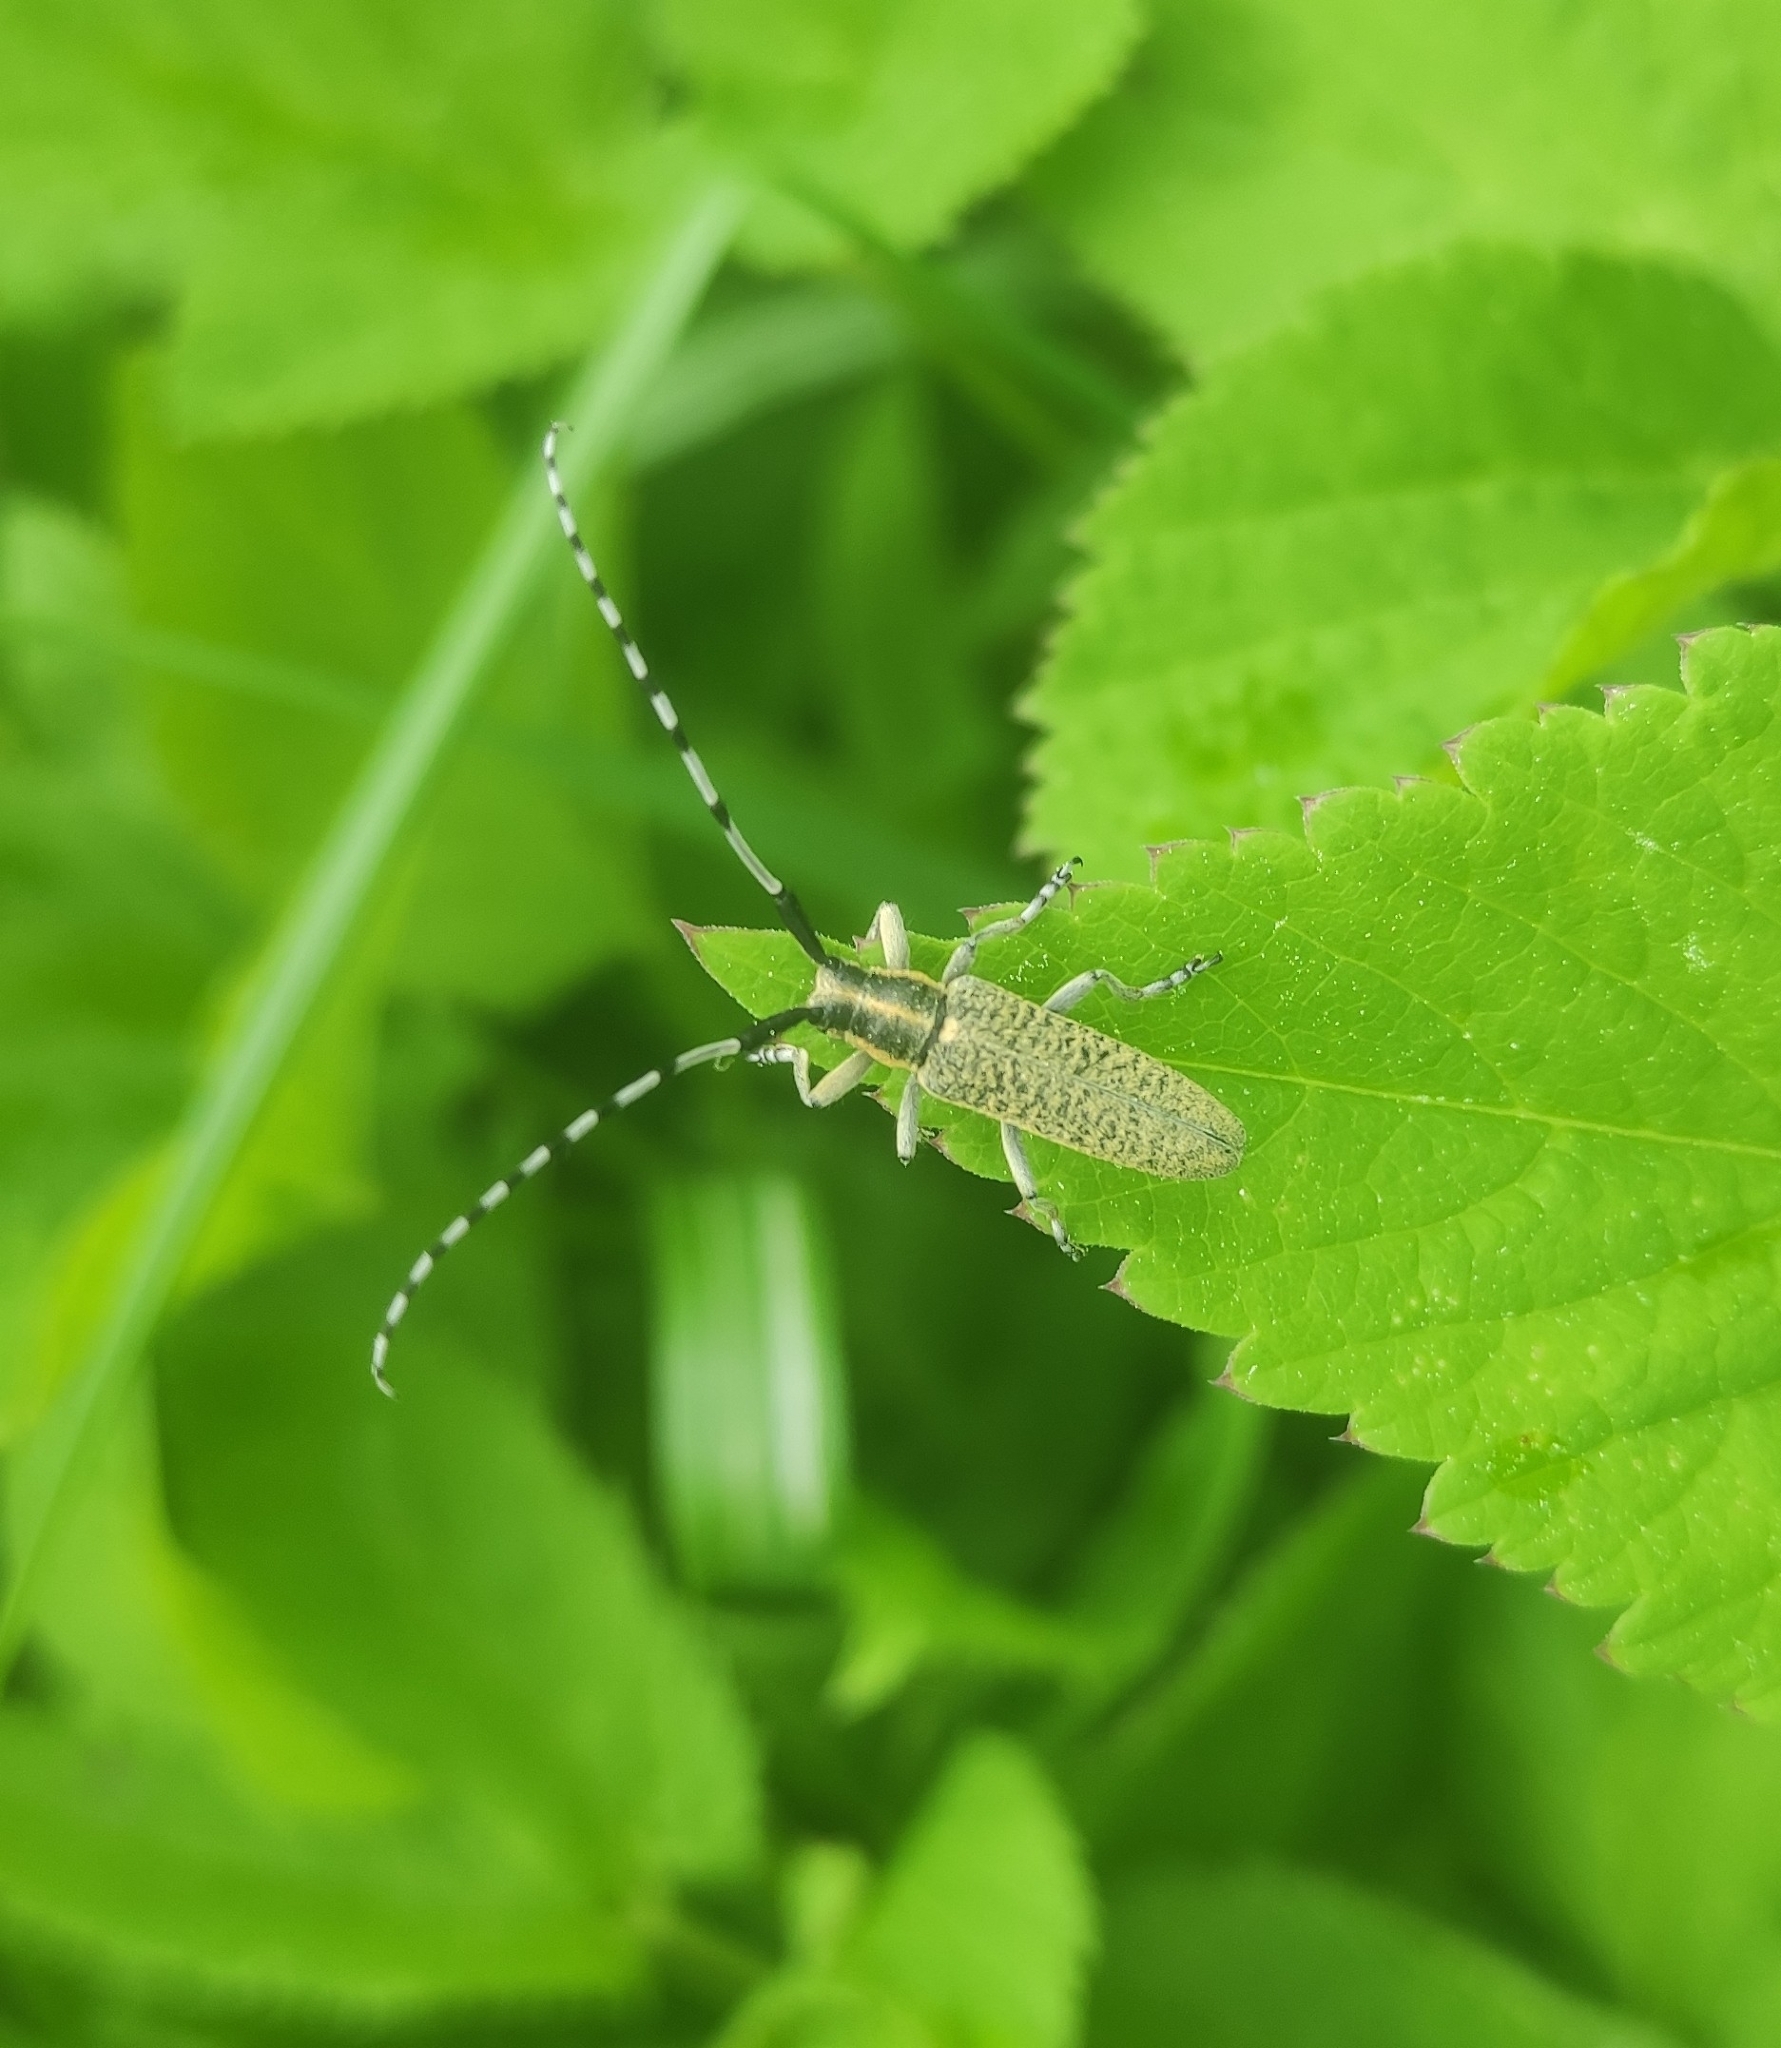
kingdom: Animalia
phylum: Arthropoda
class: Insecta
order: Coleoptera
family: Cerambycidae
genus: Agapanthia
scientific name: Agapanthia villosoviridescens
